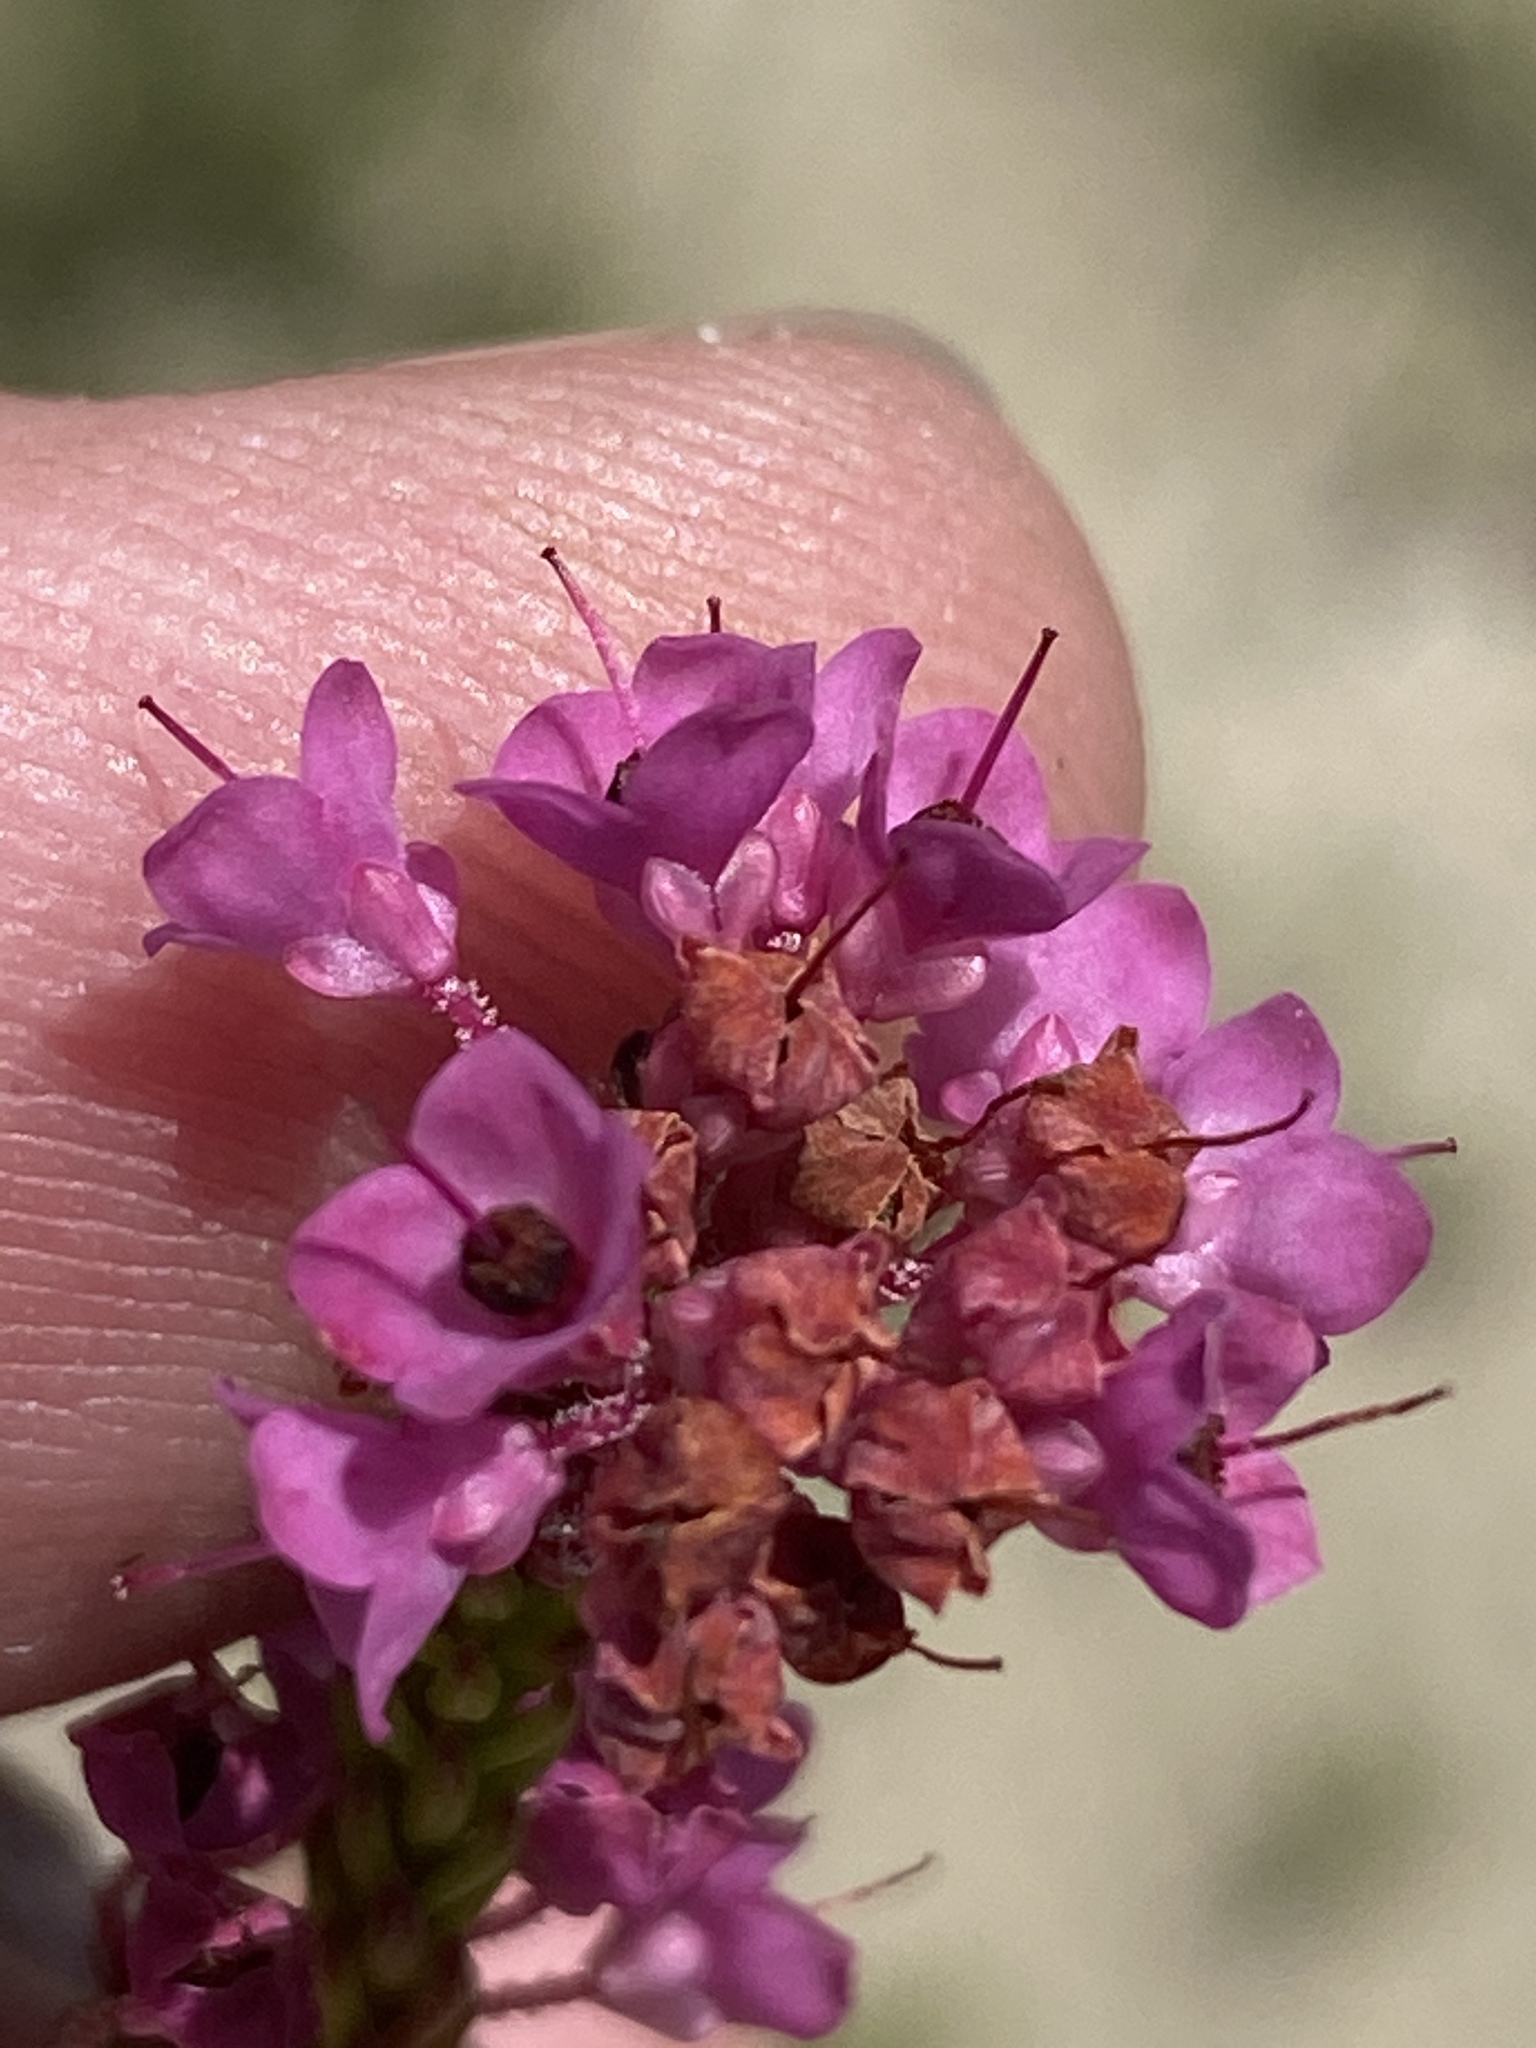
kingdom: Plantae
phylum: Tracheophyta
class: Magnoliopsida
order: Ericales
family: Ericaceae
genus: Erica
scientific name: Erica seriphiifolia
